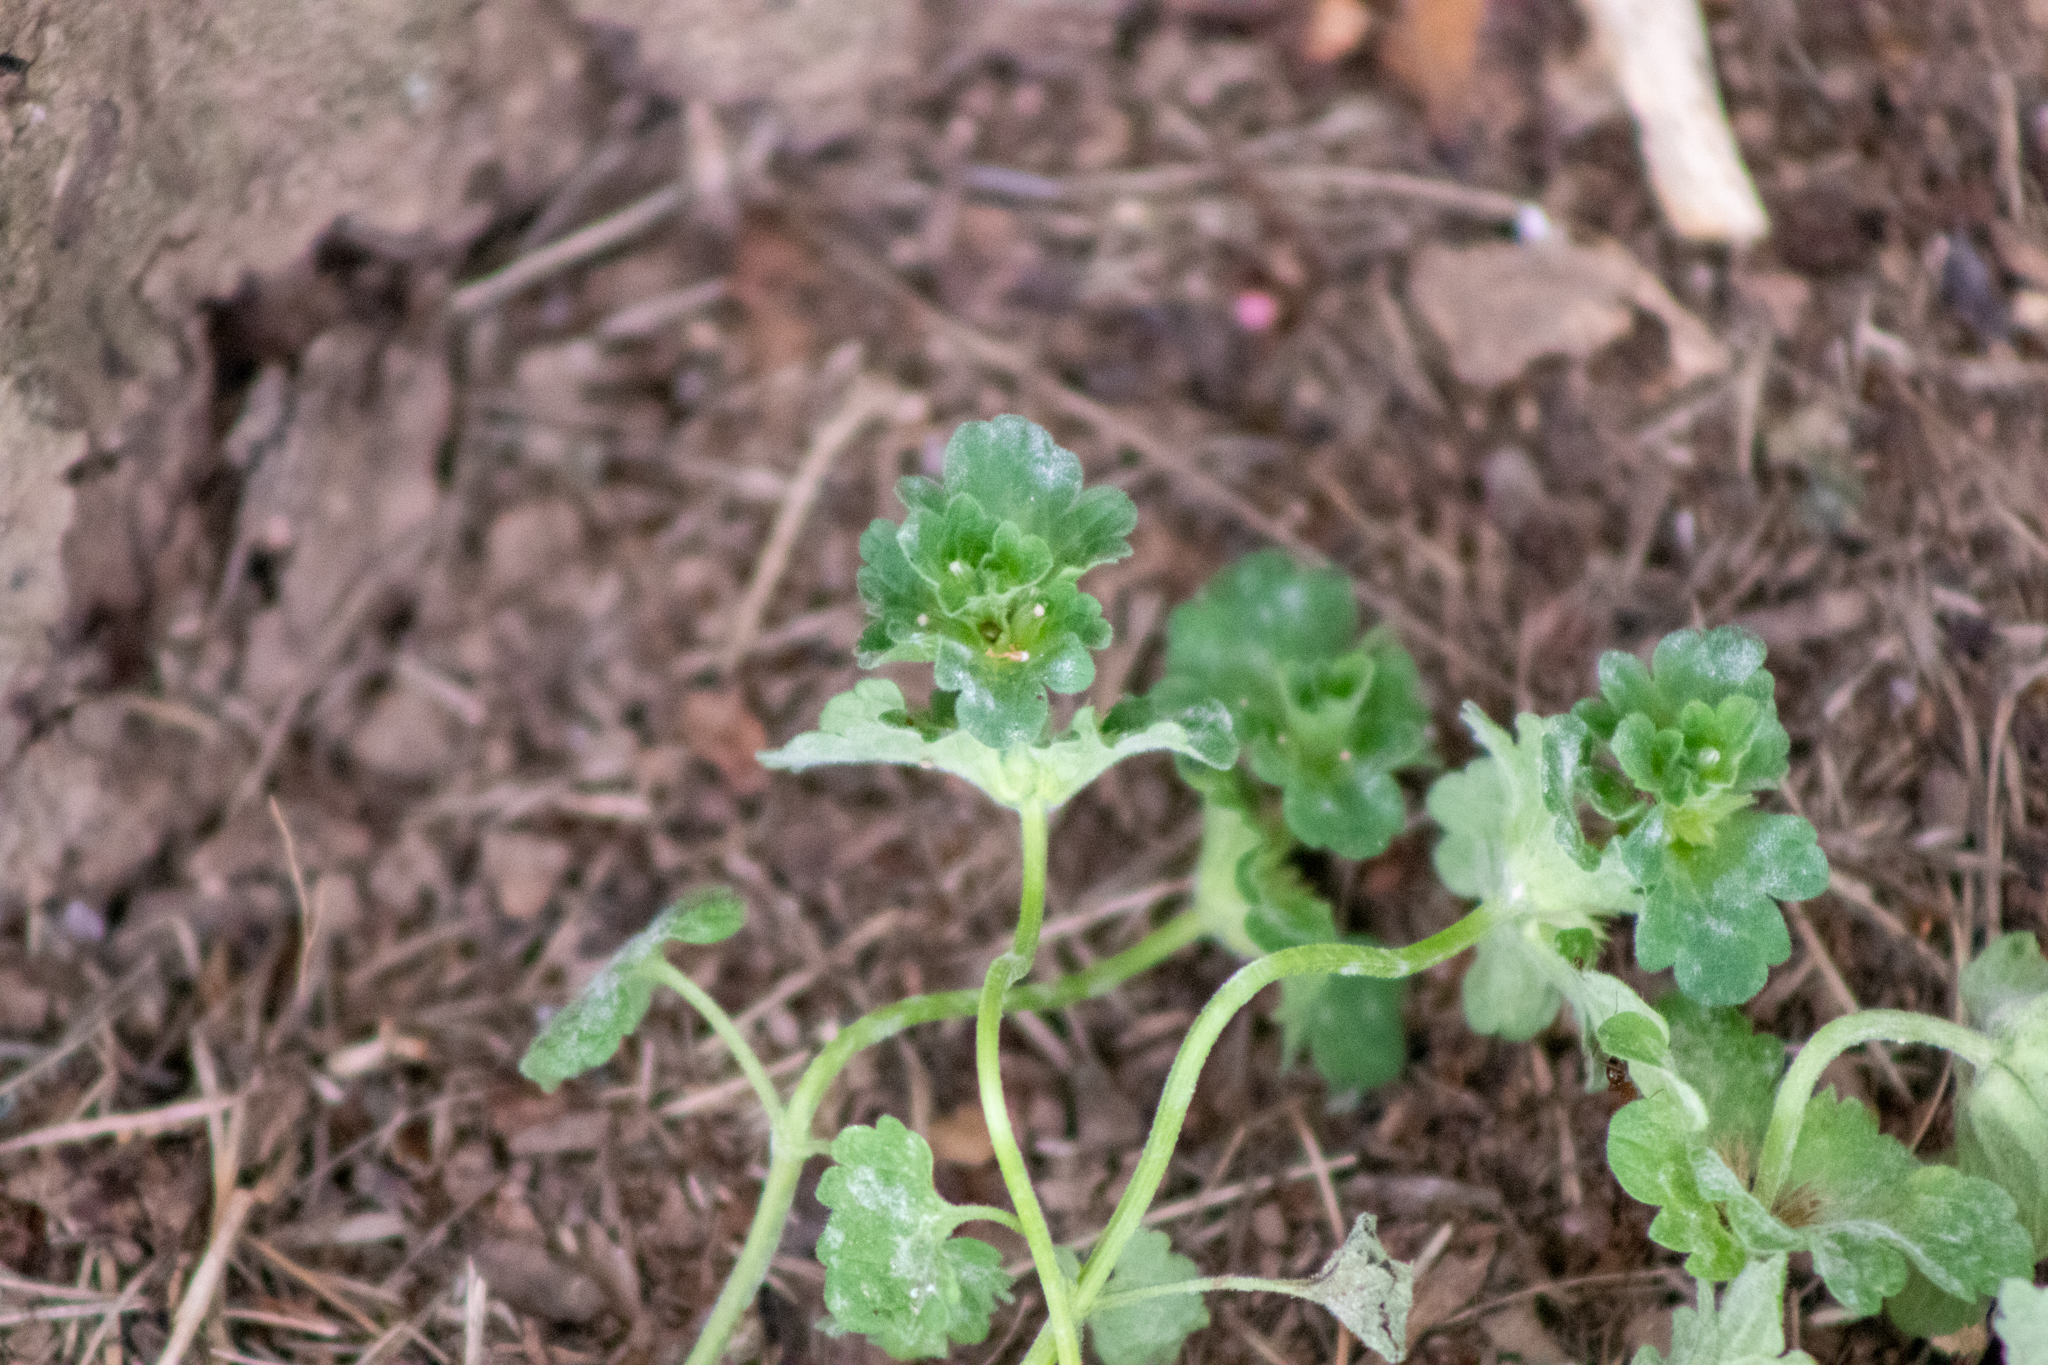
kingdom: Plantae
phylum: Tracheophyta
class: Magnoliopsida
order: Lamiales
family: Lamiaceae
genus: Lamium
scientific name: Lamium amplexicaule
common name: Henbit dead-nettle
